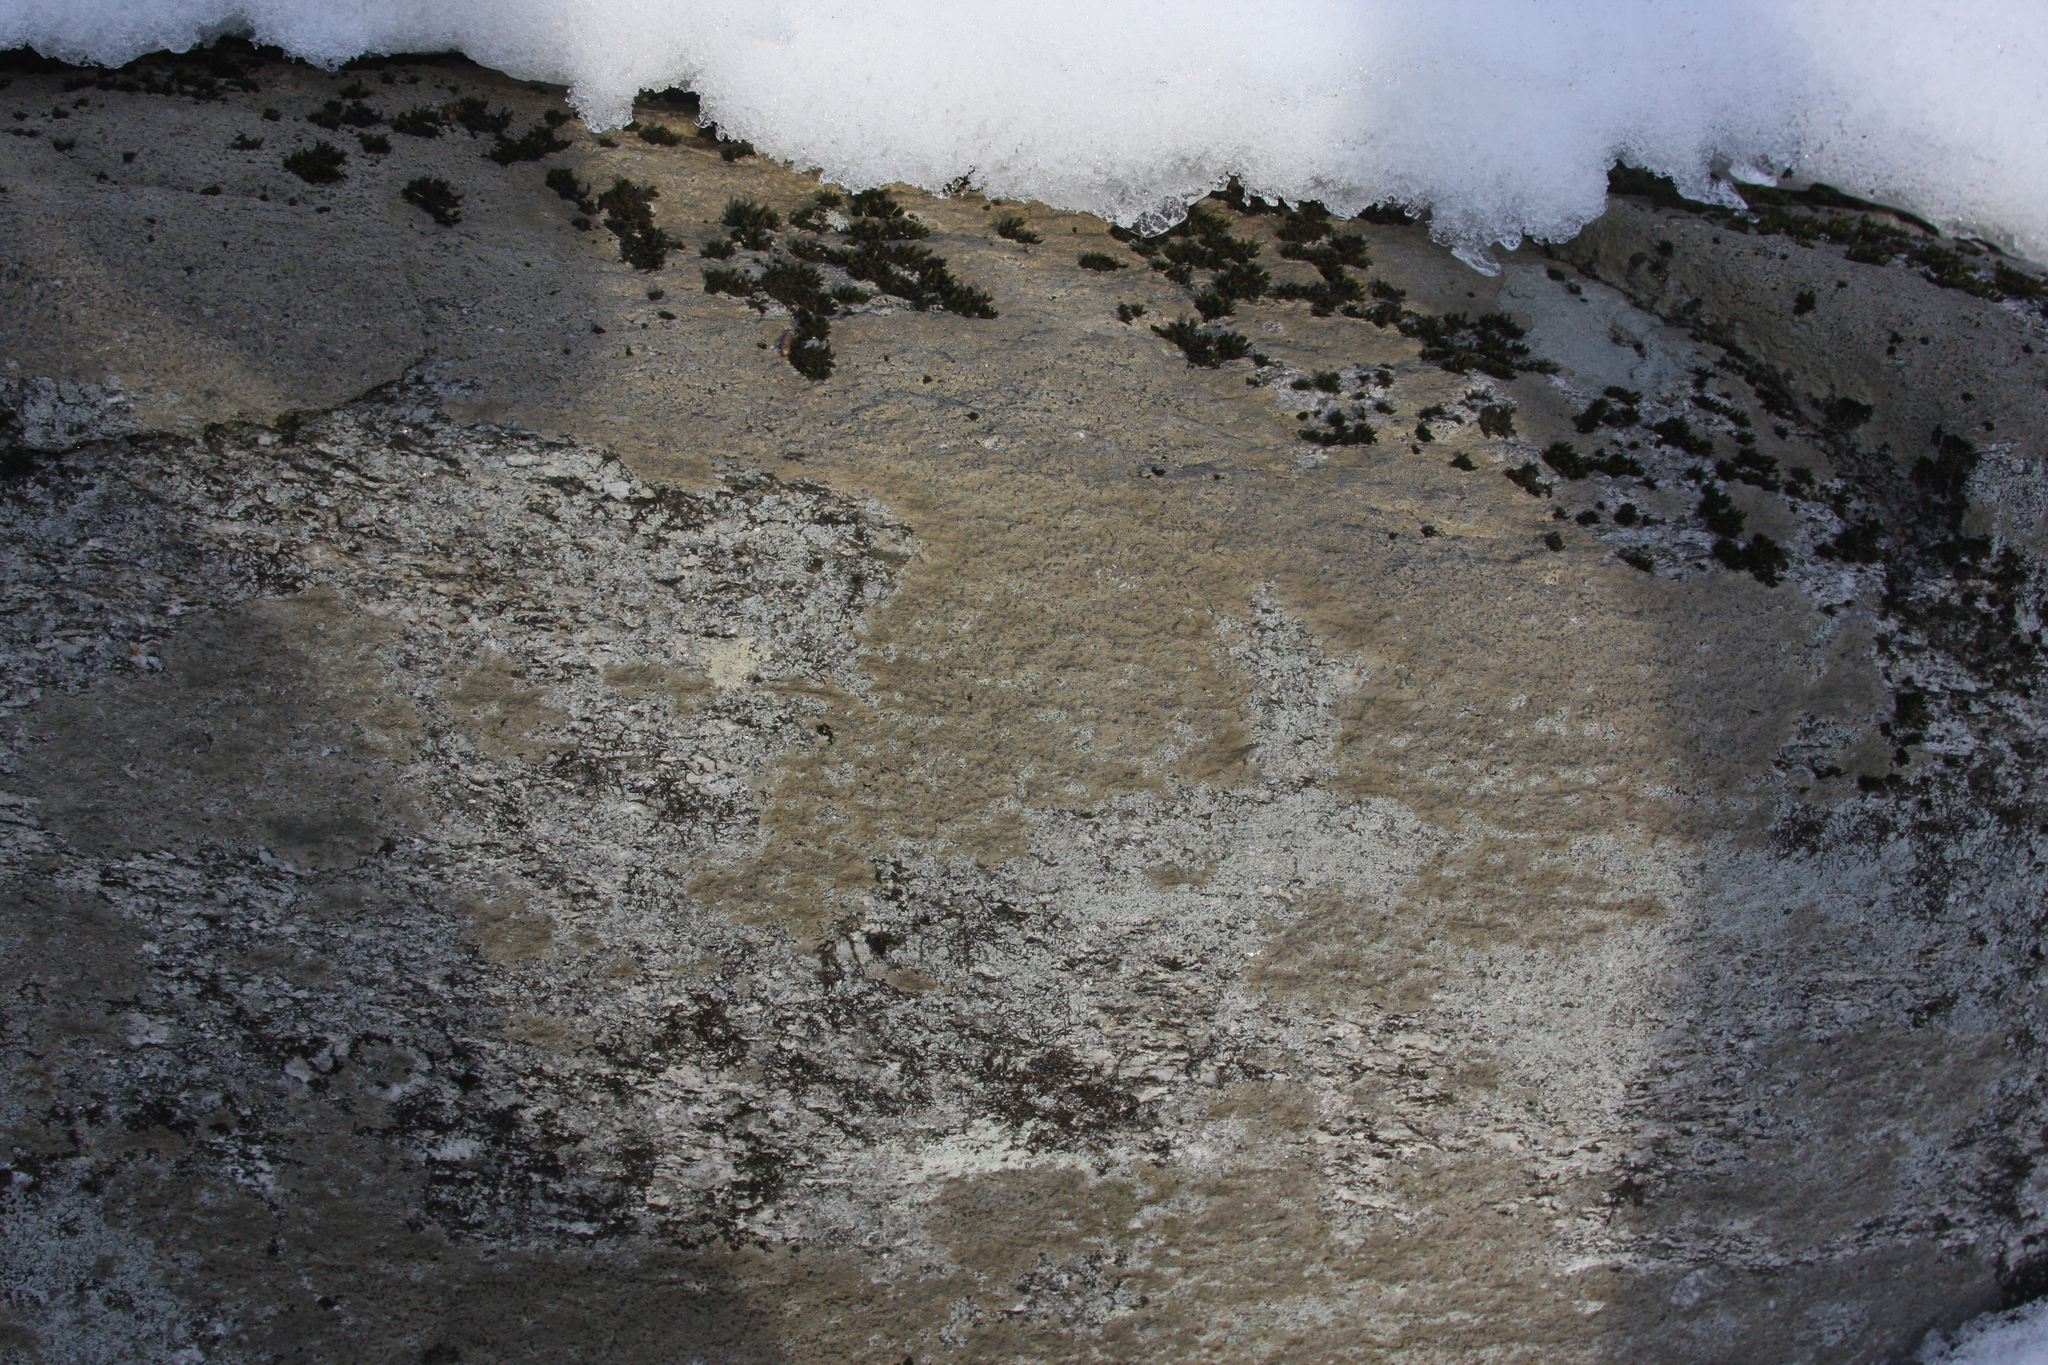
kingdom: Fungi
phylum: Ascomycota
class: Lecanoromycetes
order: Lecideales
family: Lecideaceae
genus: Porpidia
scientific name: Porpidia albocaerulescens
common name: Smokey-eyed boulder lichen
